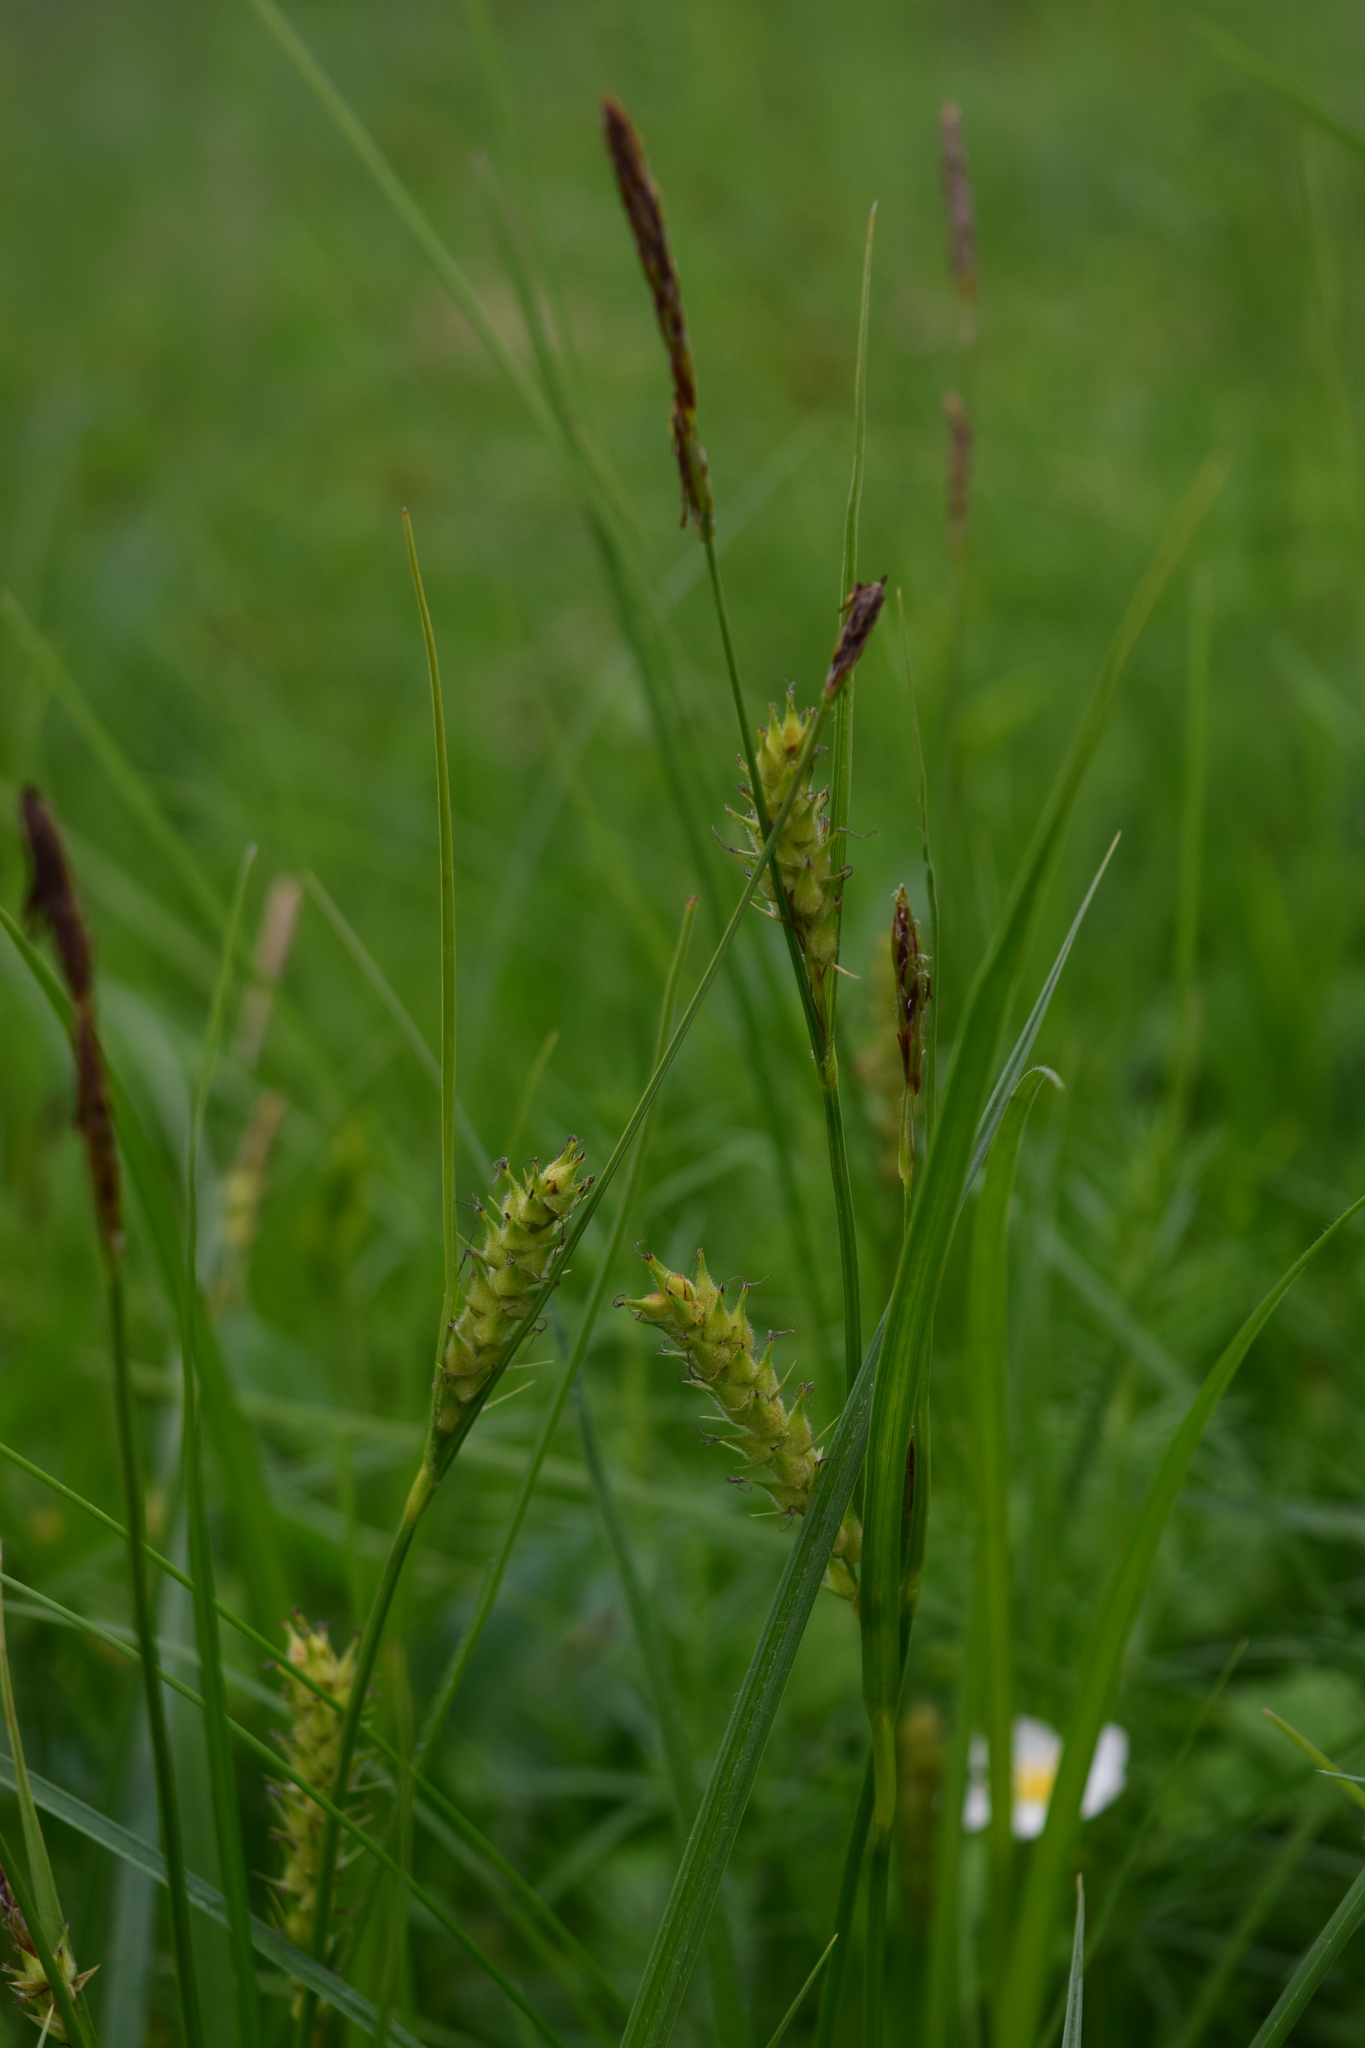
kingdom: Plantae
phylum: Tracheophyta
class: Liliopsida
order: Poales
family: Cyperaceae
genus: Carex
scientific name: Carex hirta
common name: Hairy sedge
